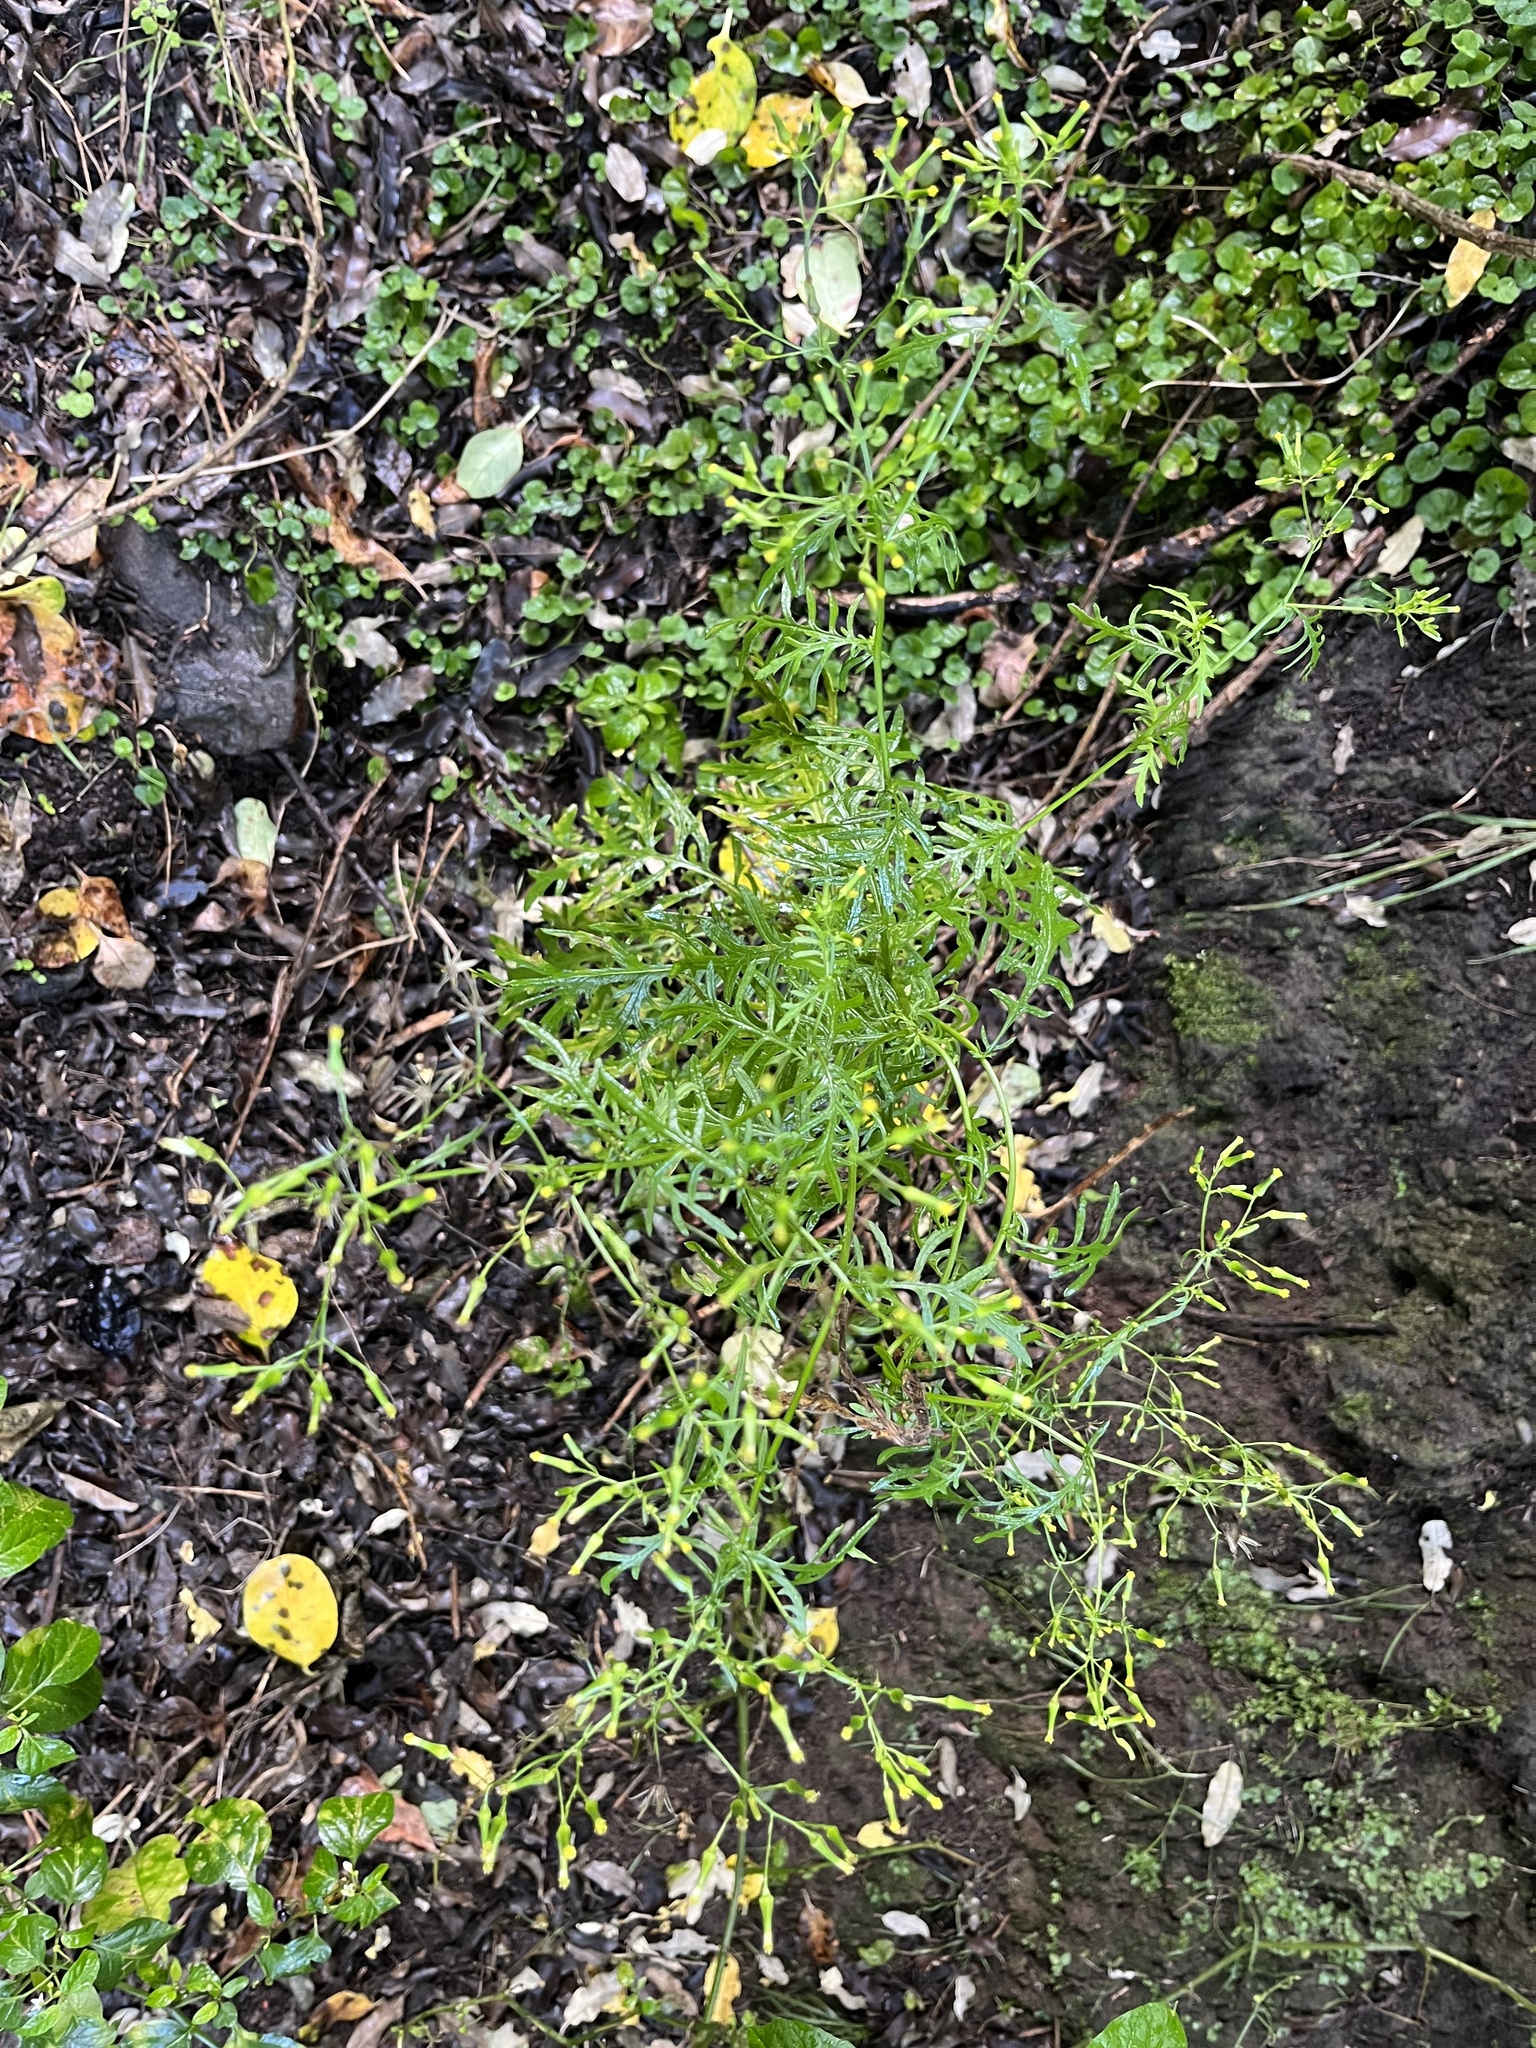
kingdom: Plantae
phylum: Tracheophyta
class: Magnoliopsida
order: Asterales
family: Asteraceae
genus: Senecio
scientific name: Senecio bipinnatisectus
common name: Australian fireweed
